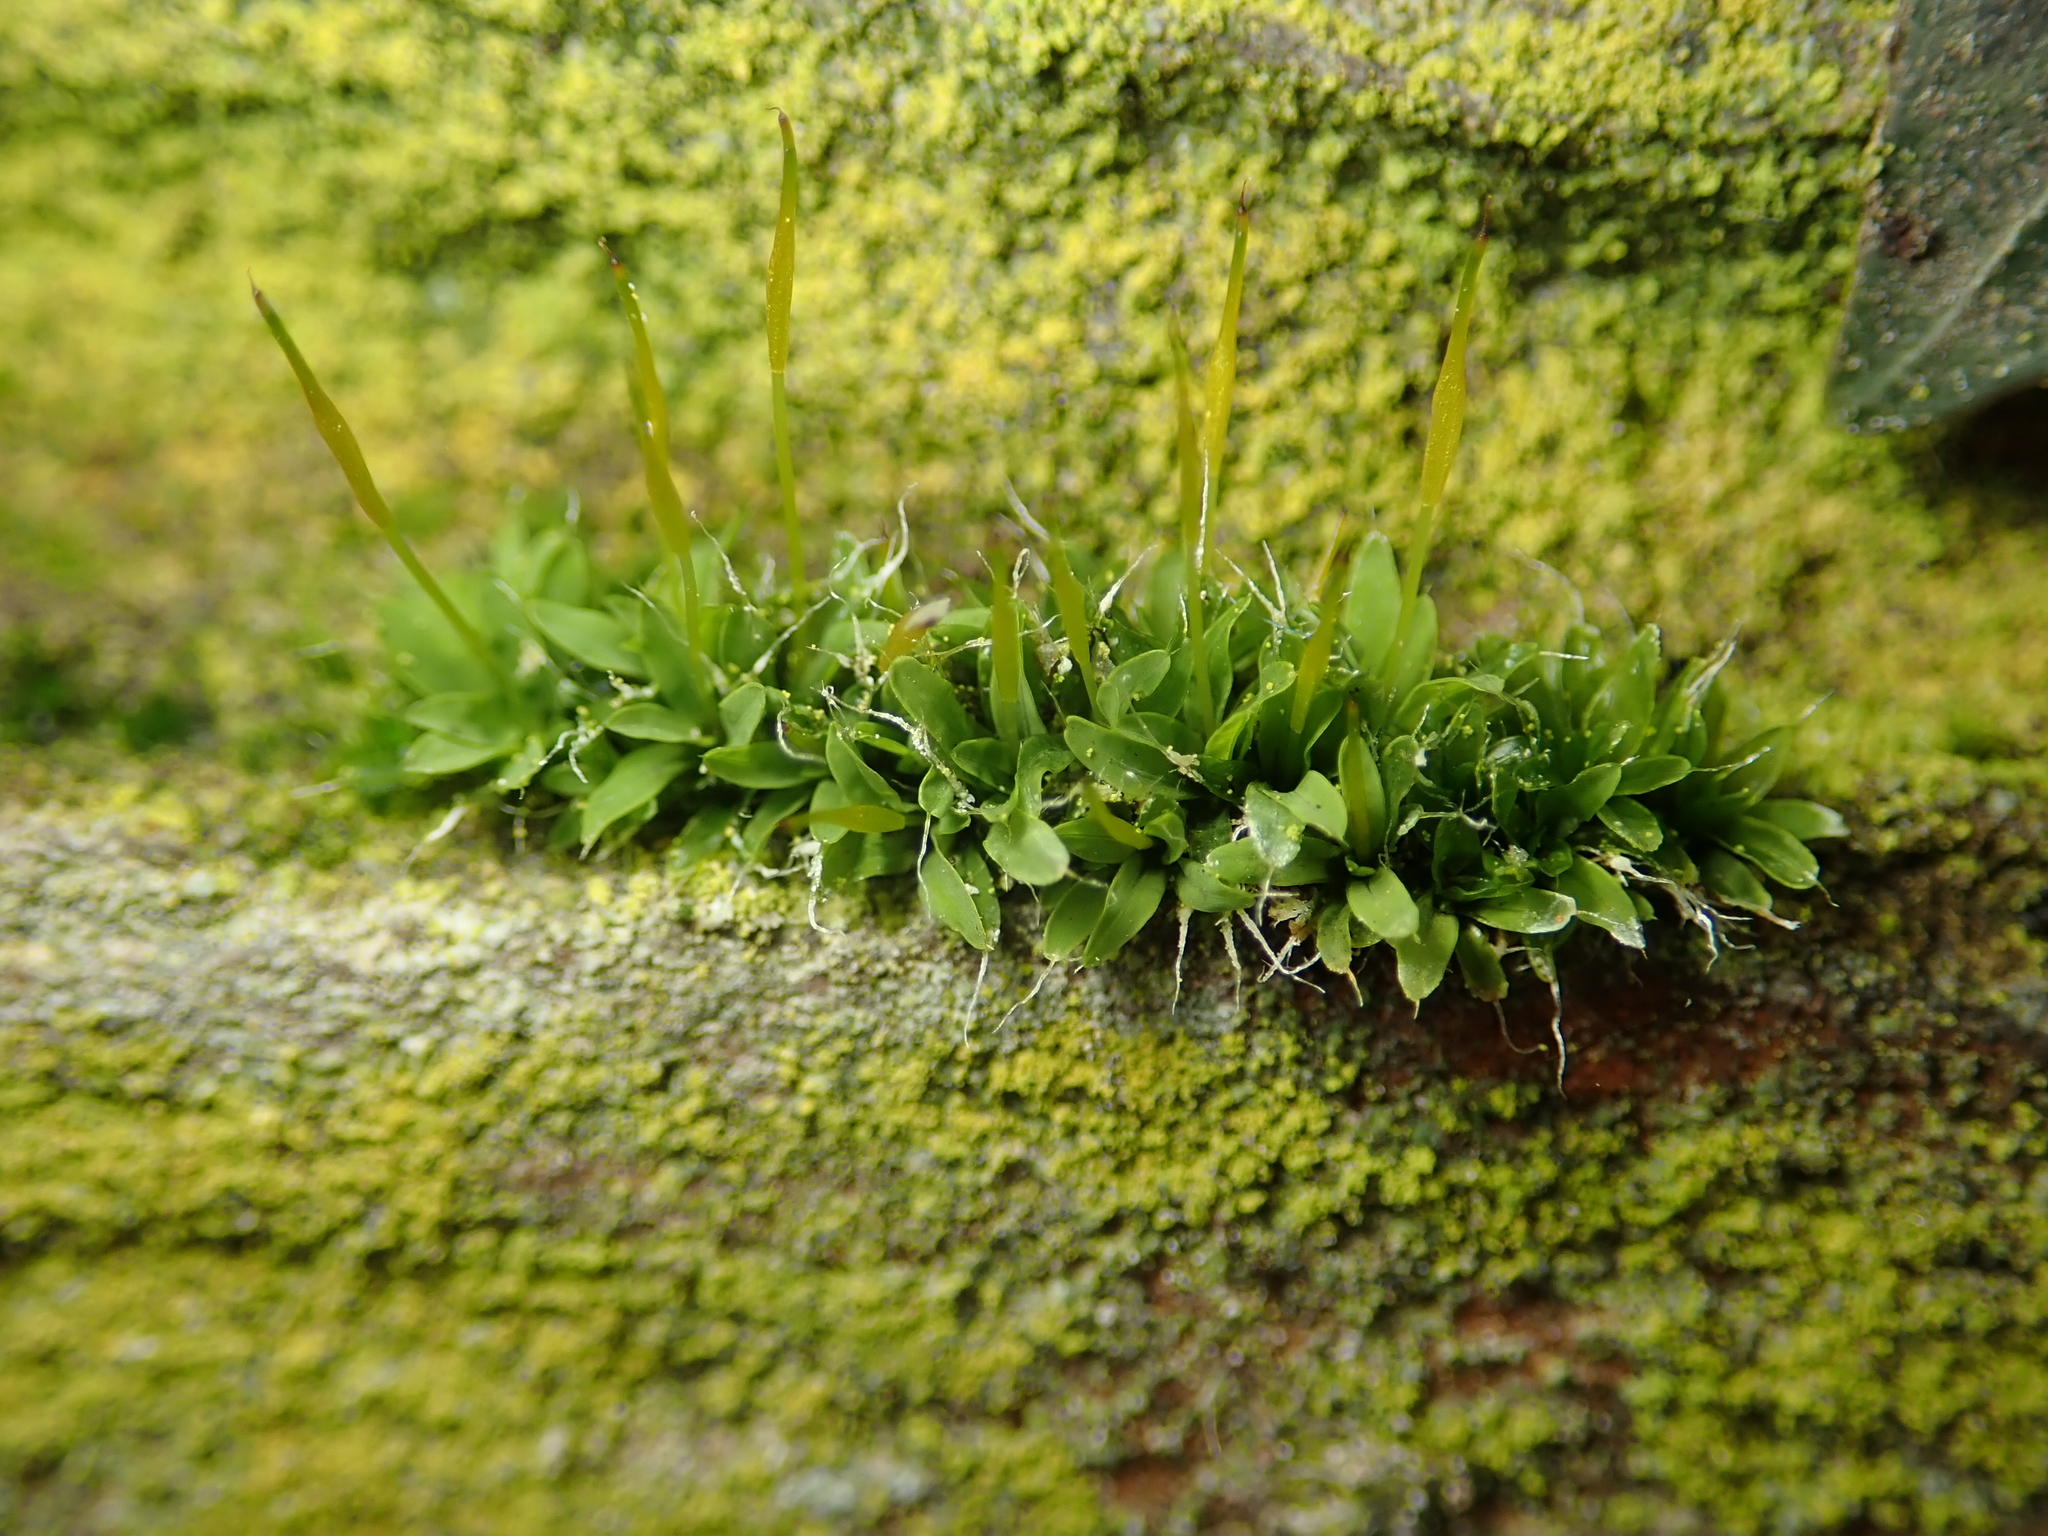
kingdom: Plantae
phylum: Bryophyta
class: Bryopsida
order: Pottiales
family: Pottiaceae
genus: Tortula
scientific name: Tortula muralis
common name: Wall screw-moss
